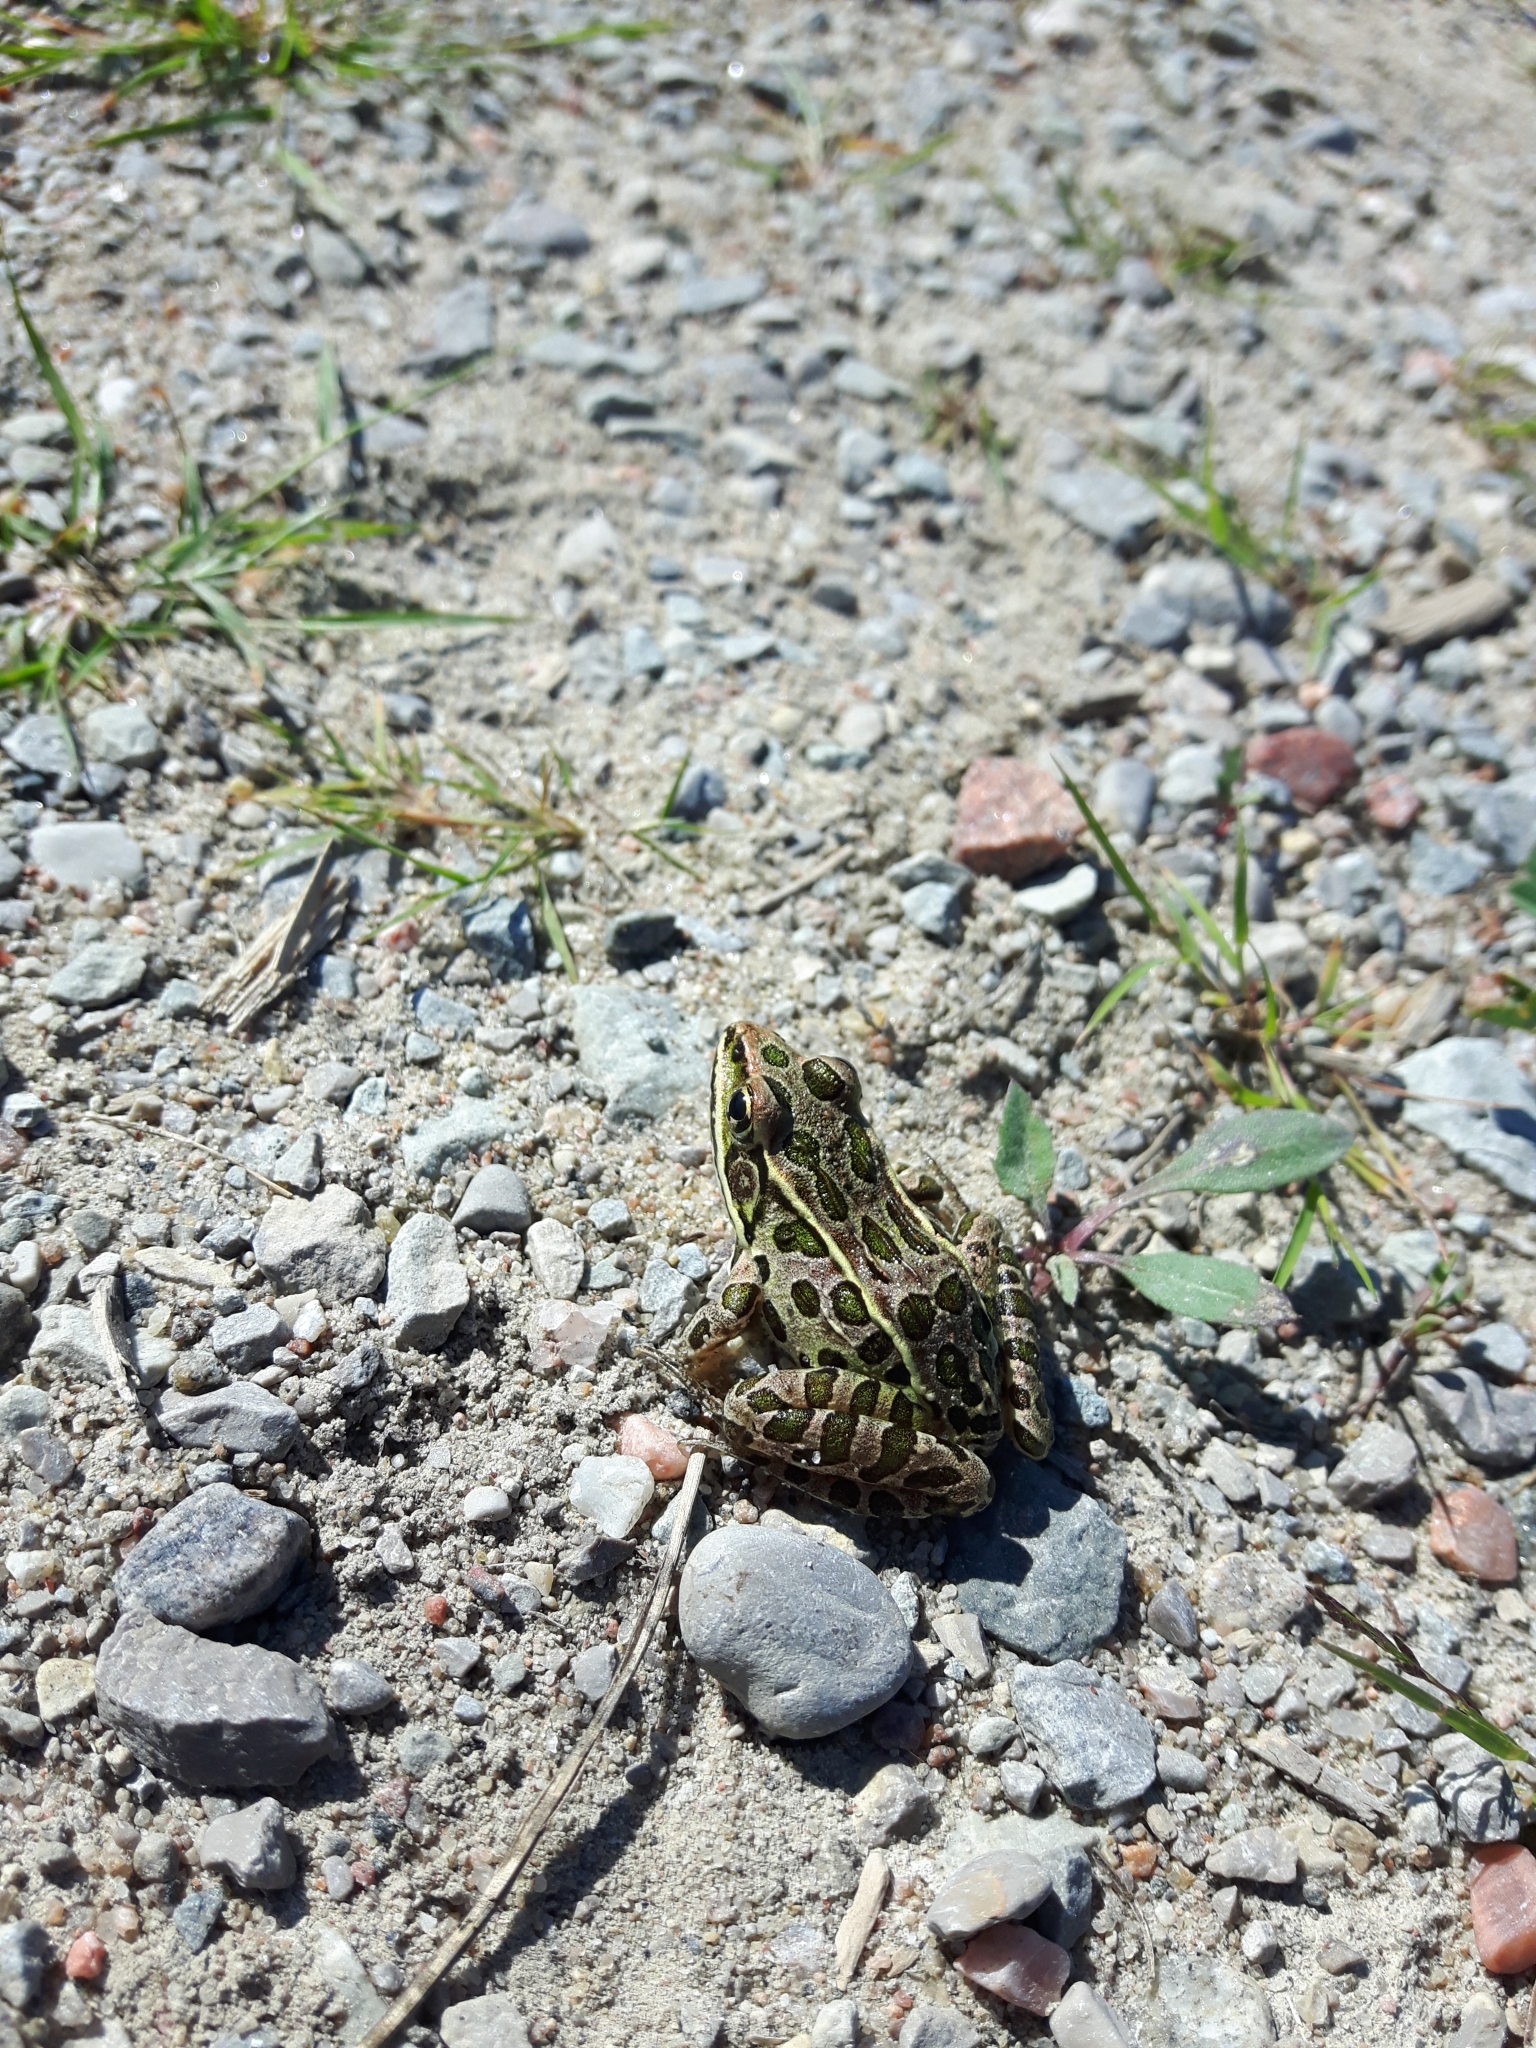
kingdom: Animalia
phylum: Chordata
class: Amphibia
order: Anura
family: Ranidae
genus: Lithobates
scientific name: Lithobates pipiens
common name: Northern leopard frog
